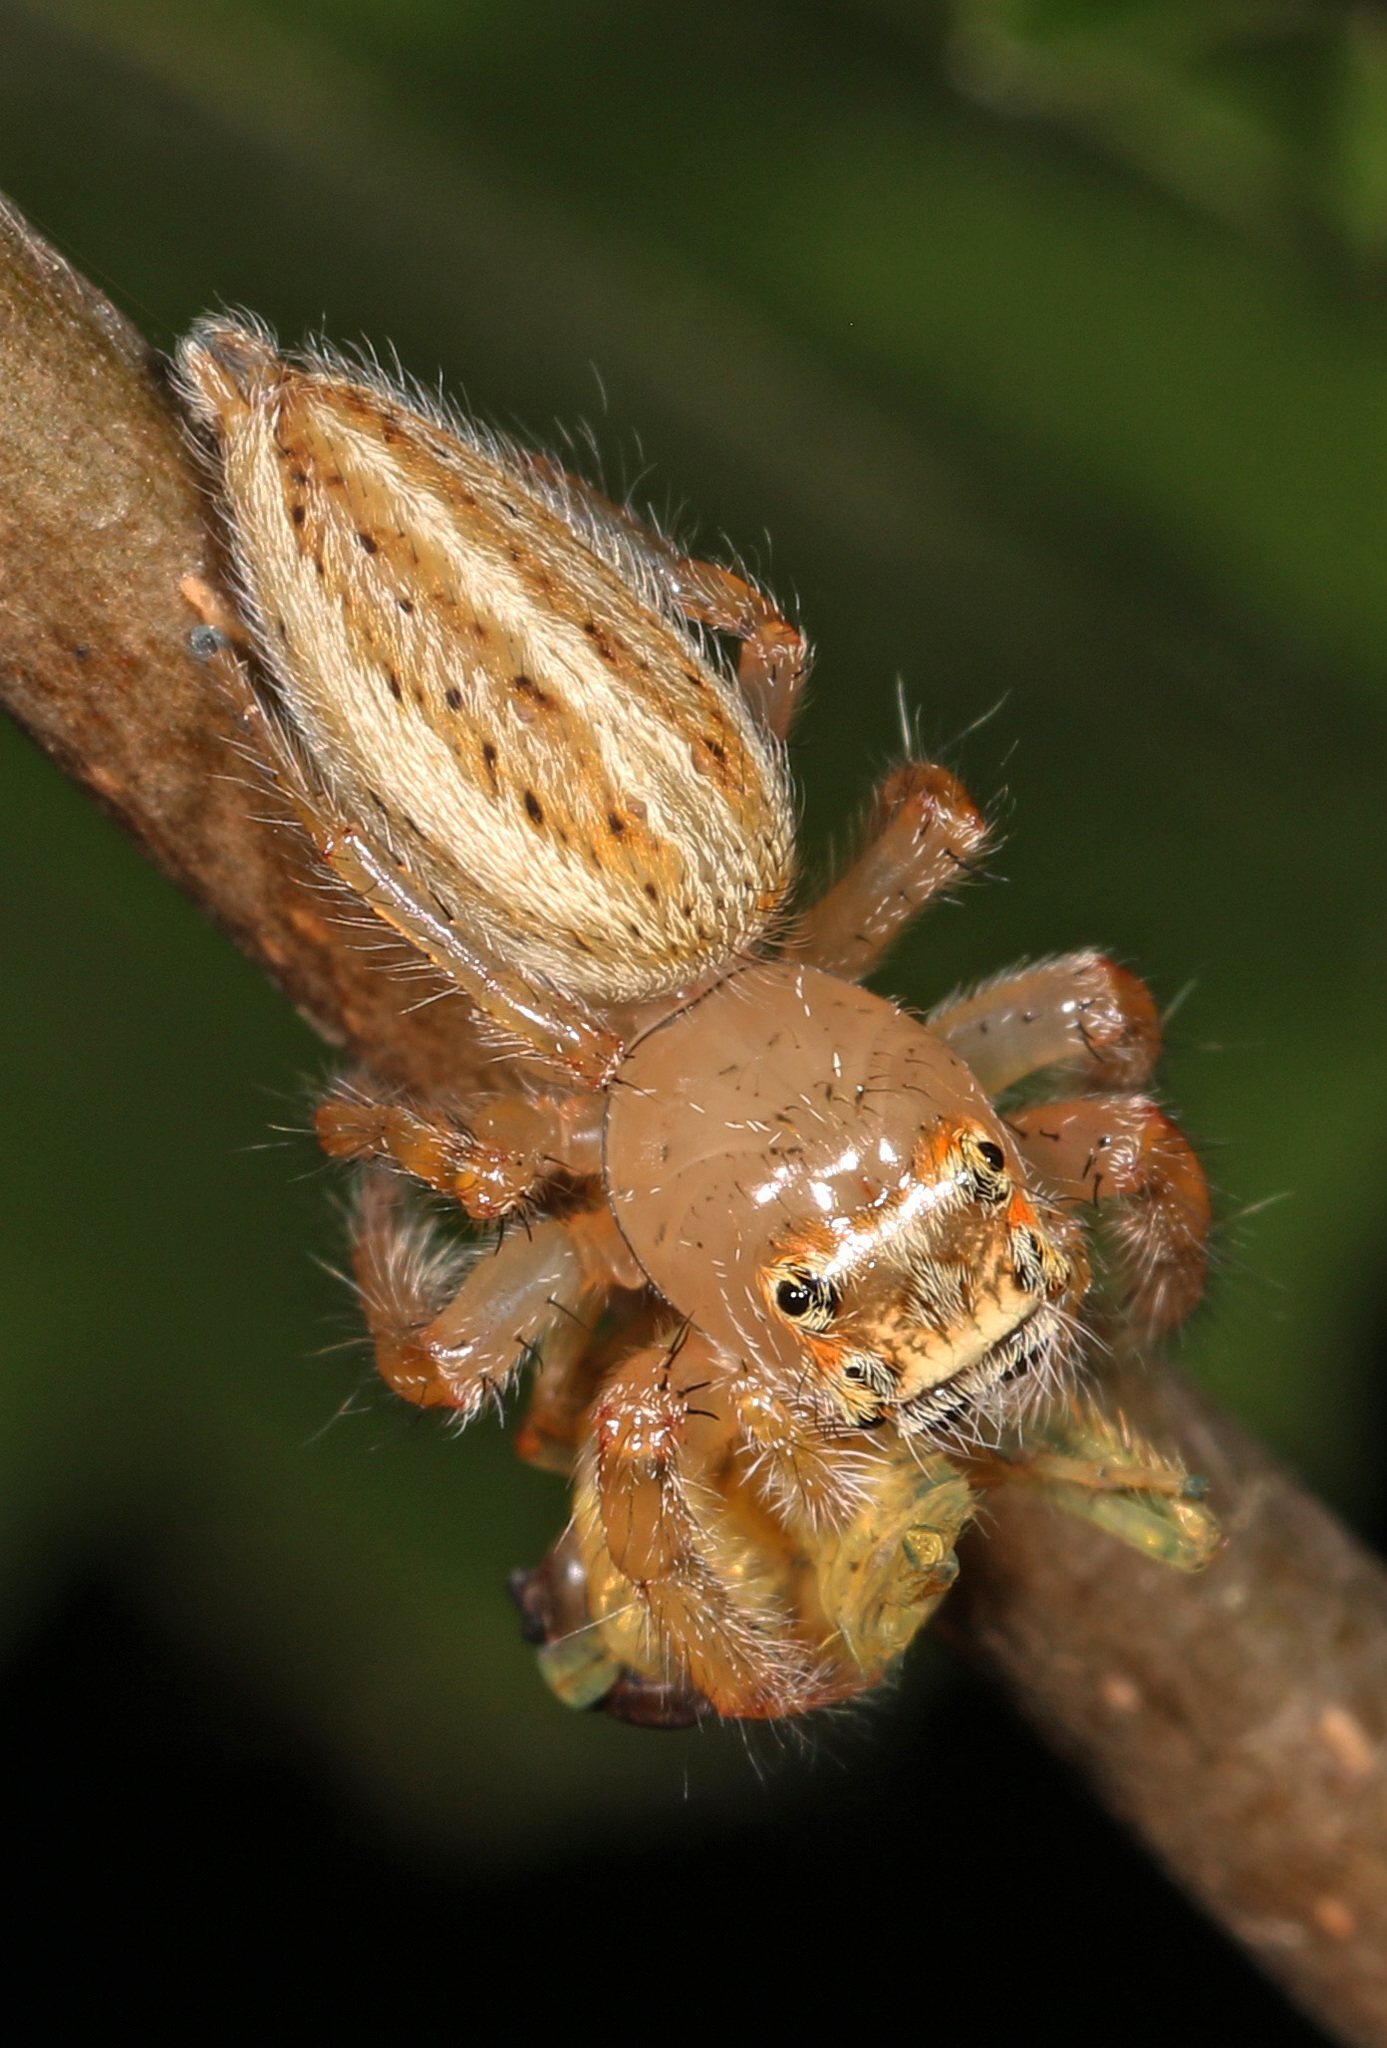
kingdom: Animalia
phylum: Arthropoda
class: Arachnida
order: Araneae
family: Salticidae
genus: Colonus
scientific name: Colonus sylvanus
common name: Jumping spiders
